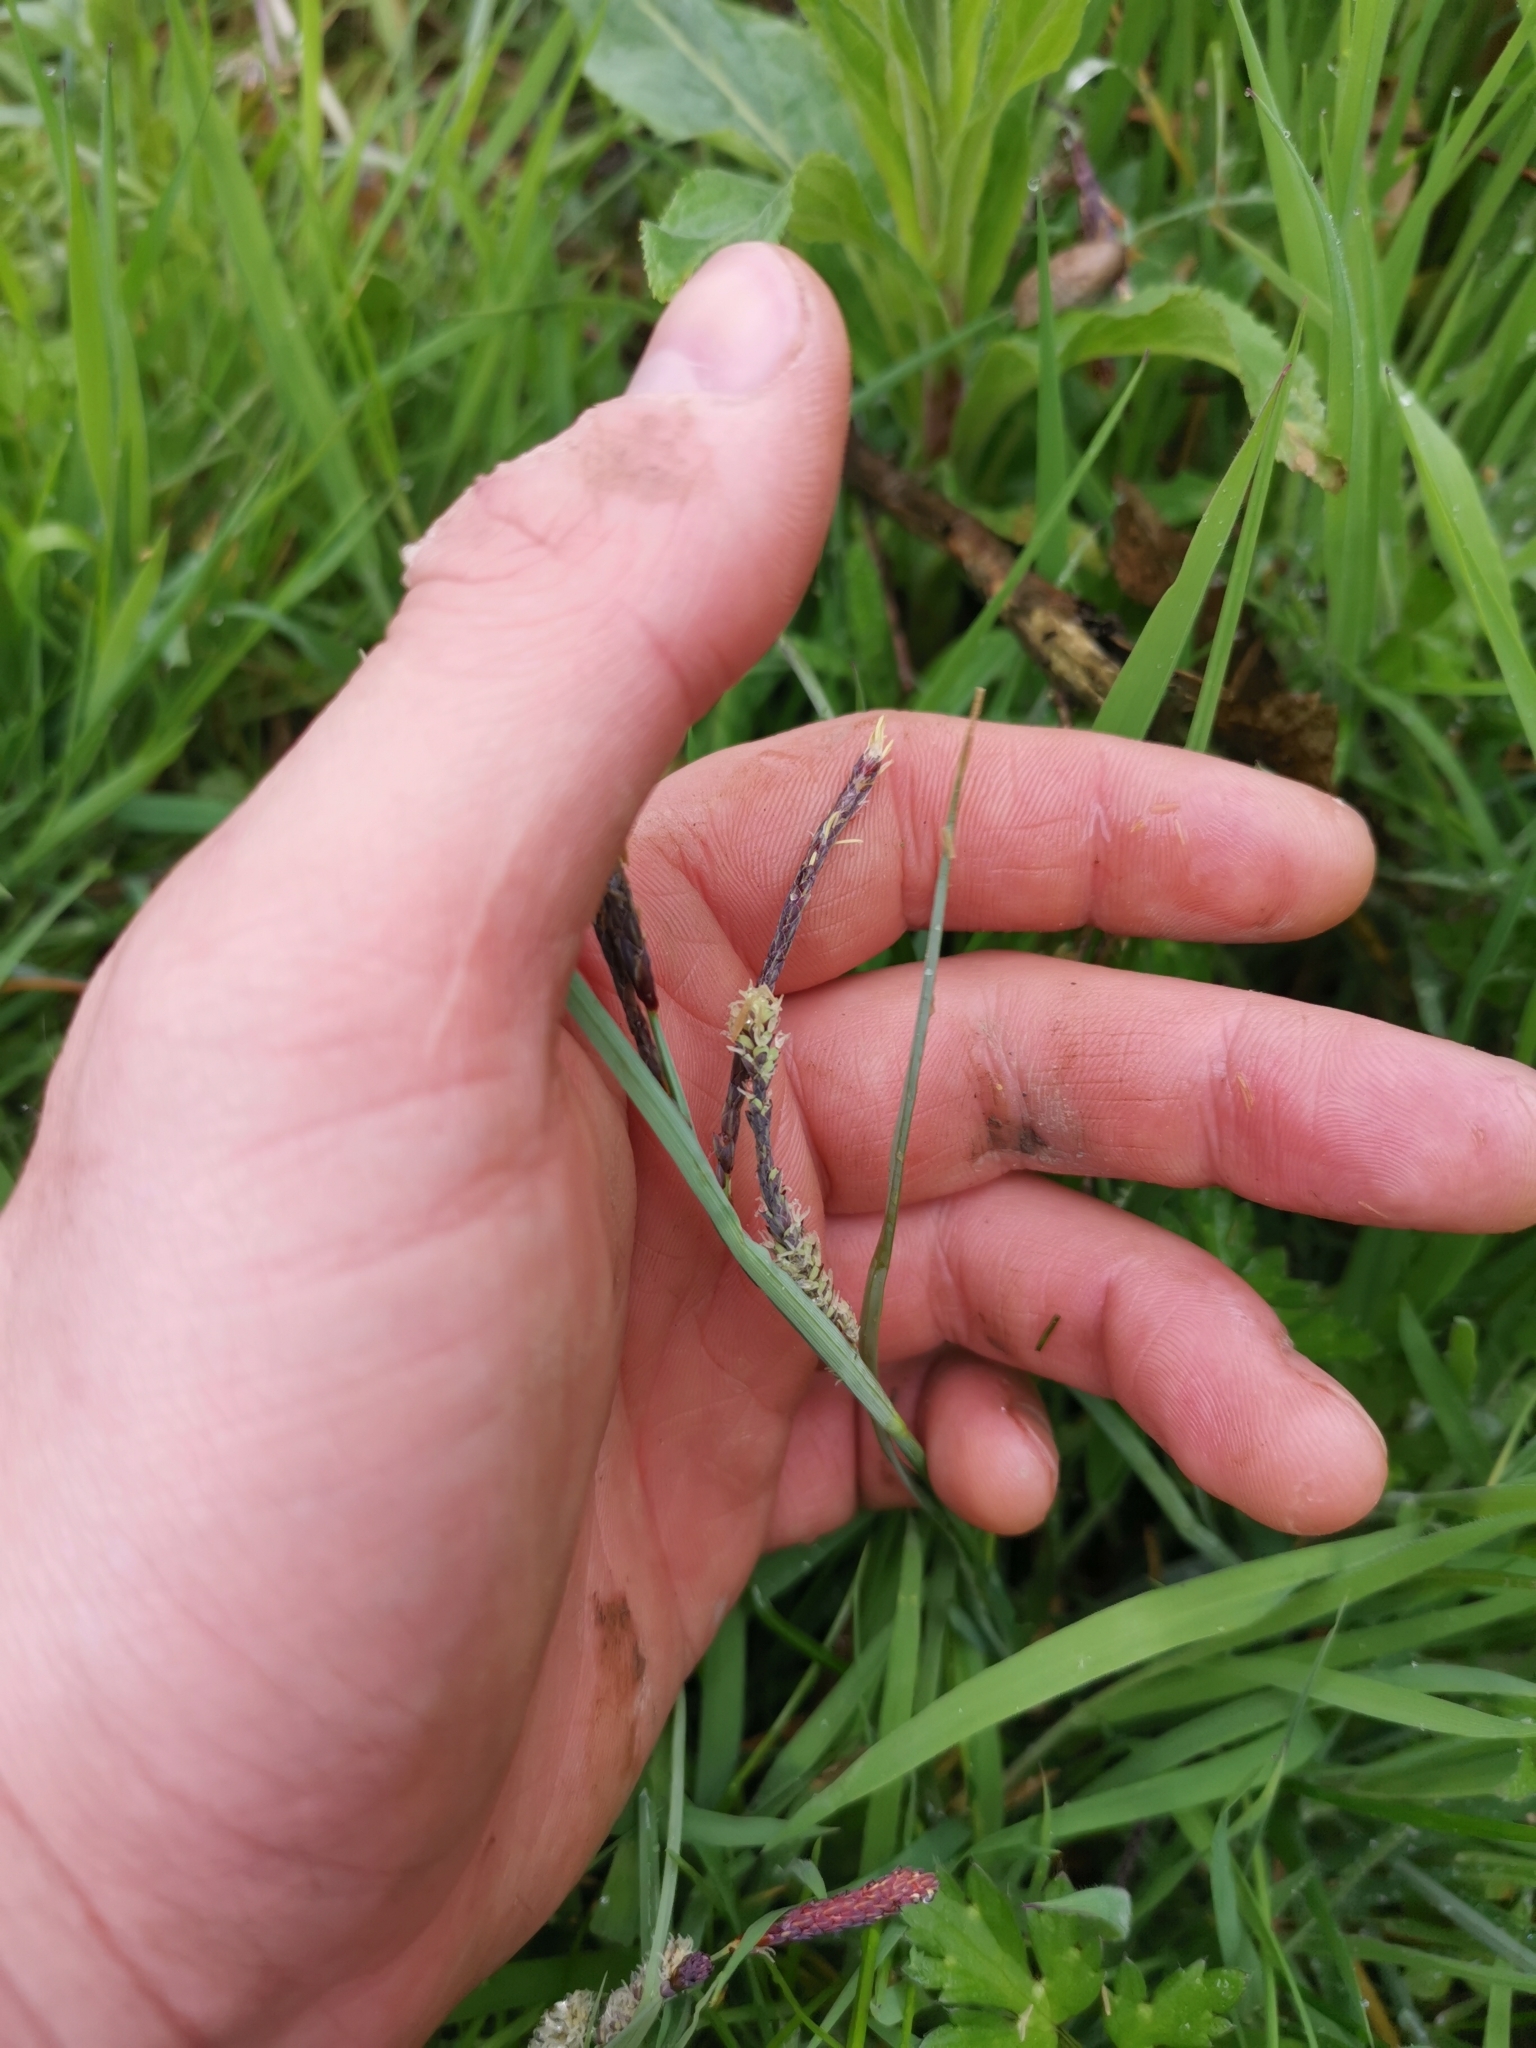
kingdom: Plantae
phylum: Tracheophyta
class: Liliopsida
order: Poales
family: Cyperaceae
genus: Carex
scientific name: Carex flacca
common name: Glaucous sedge
